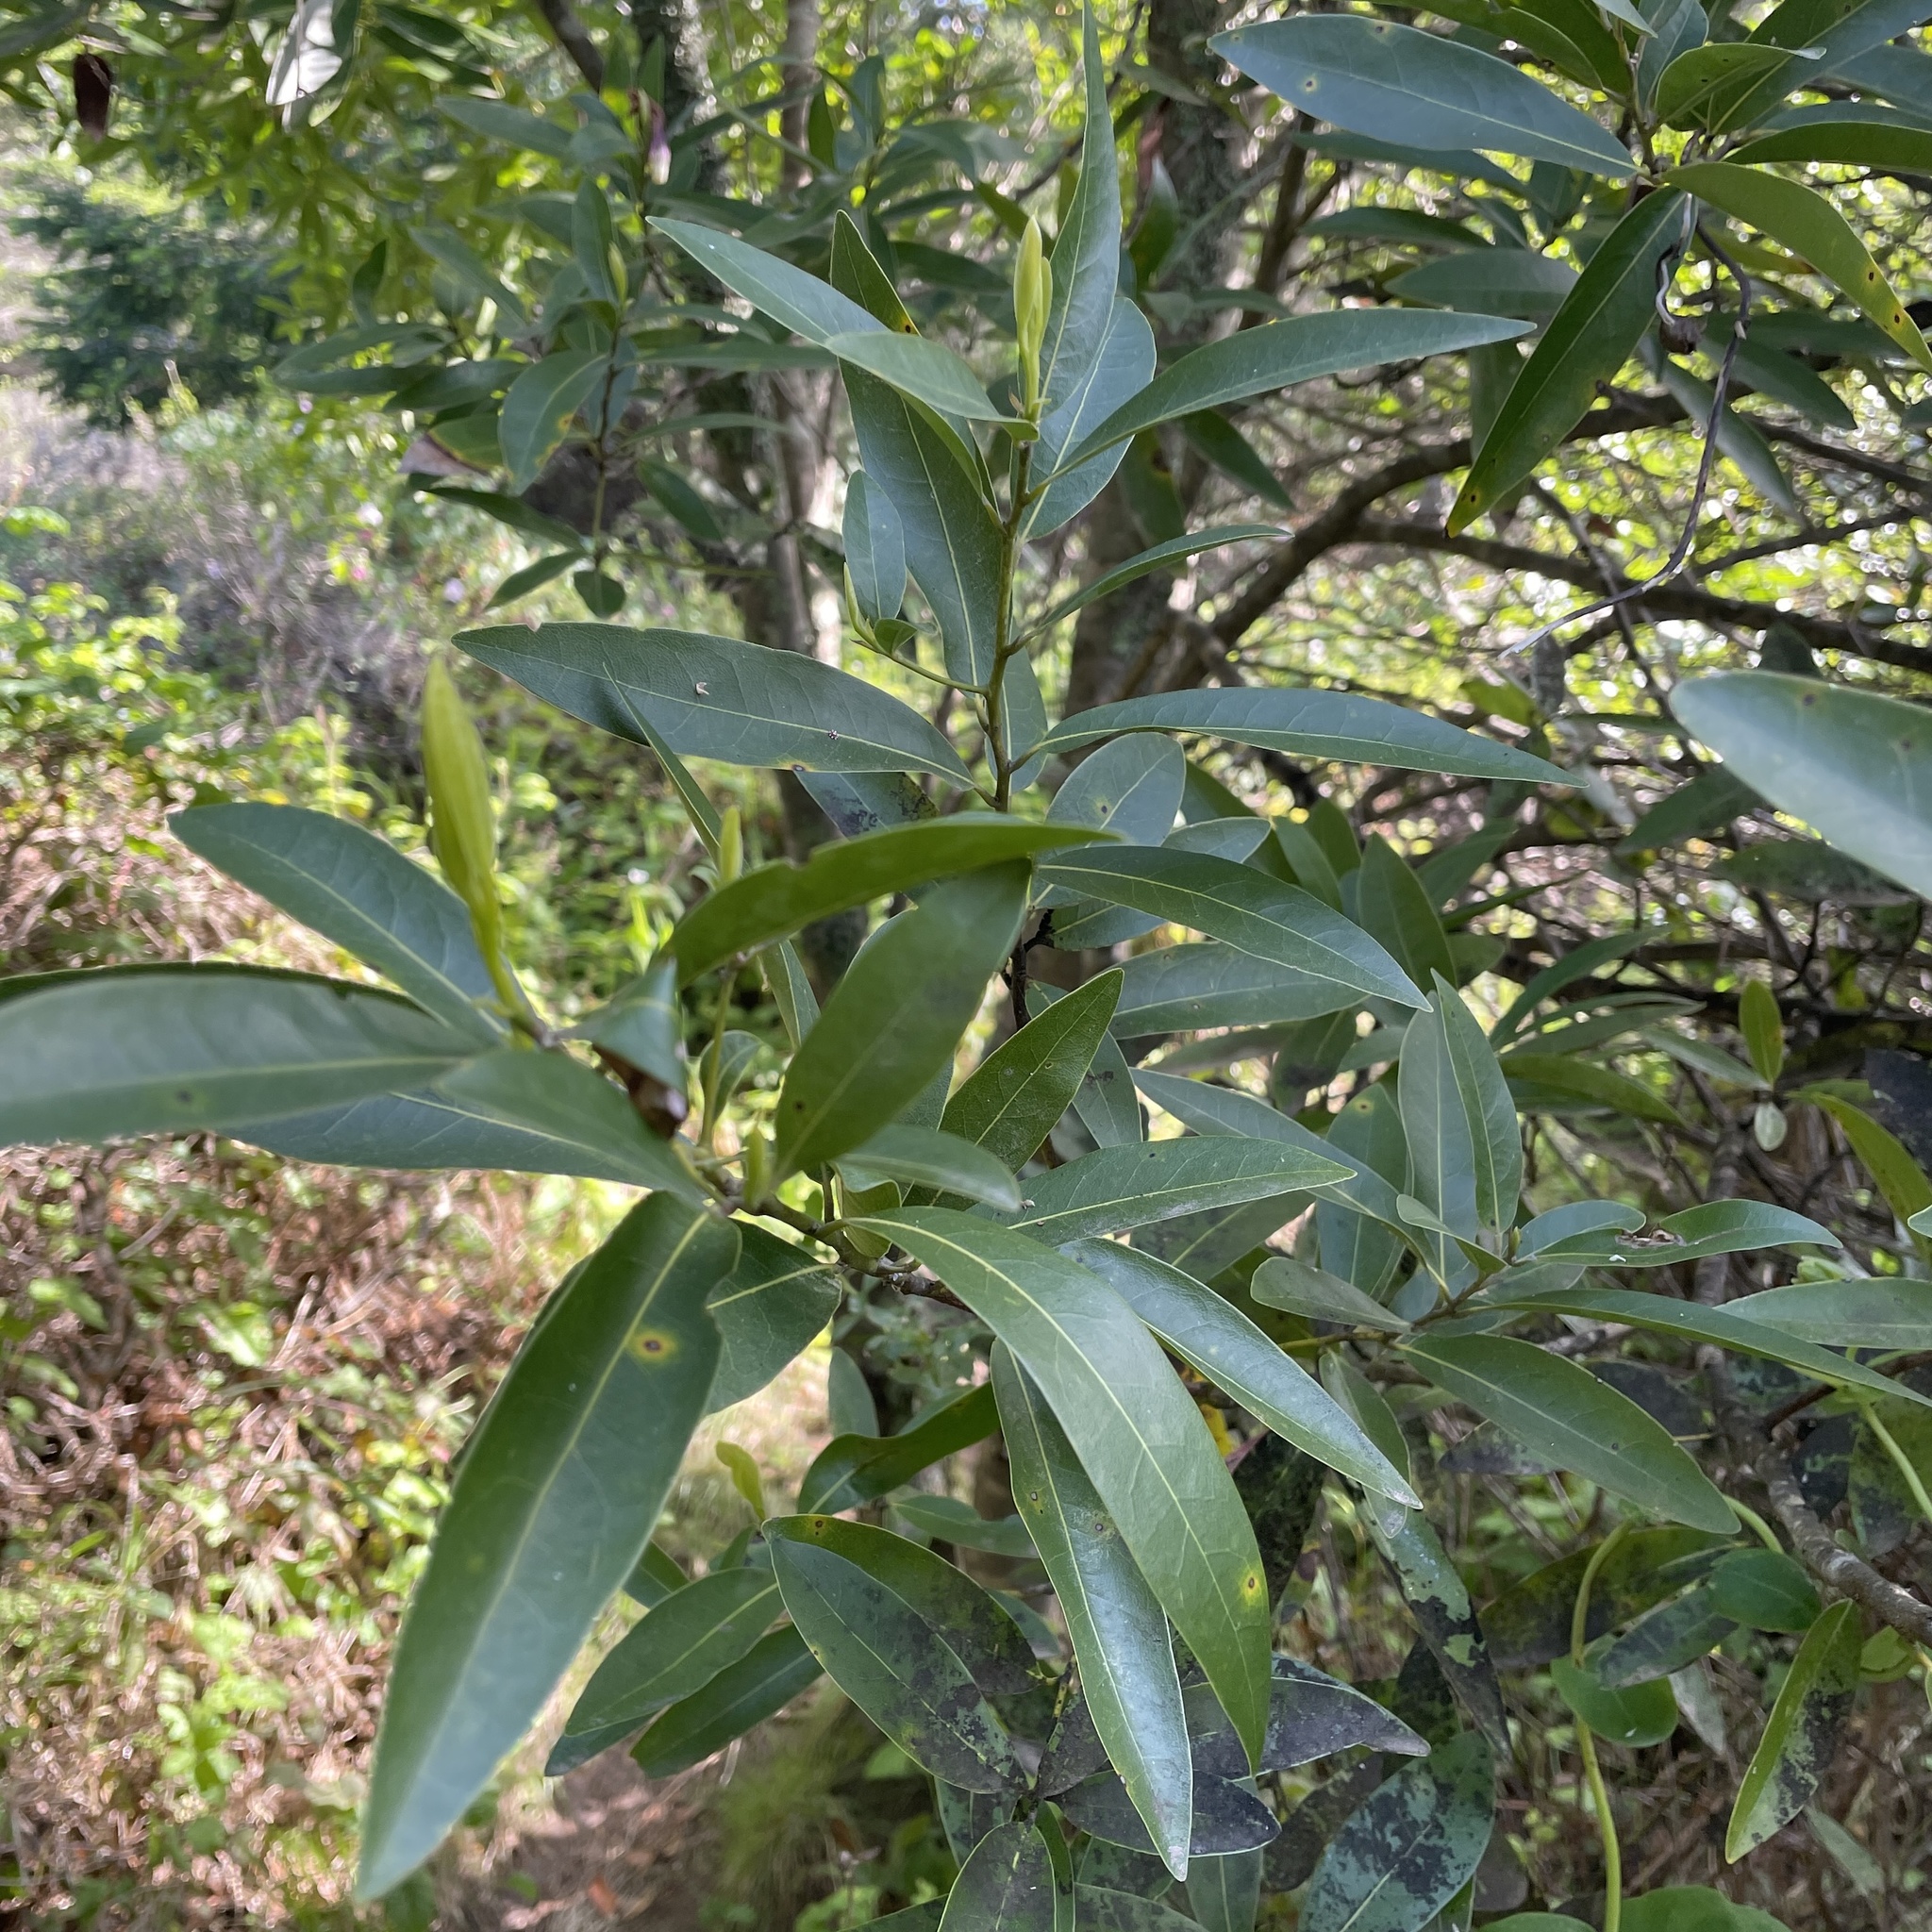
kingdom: Plantae
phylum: Tracheophyta
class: Magnoliopsida
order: Laurales
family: Lauraceae
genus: Umbellularia
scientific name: Umbellularia californica
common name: California bay
